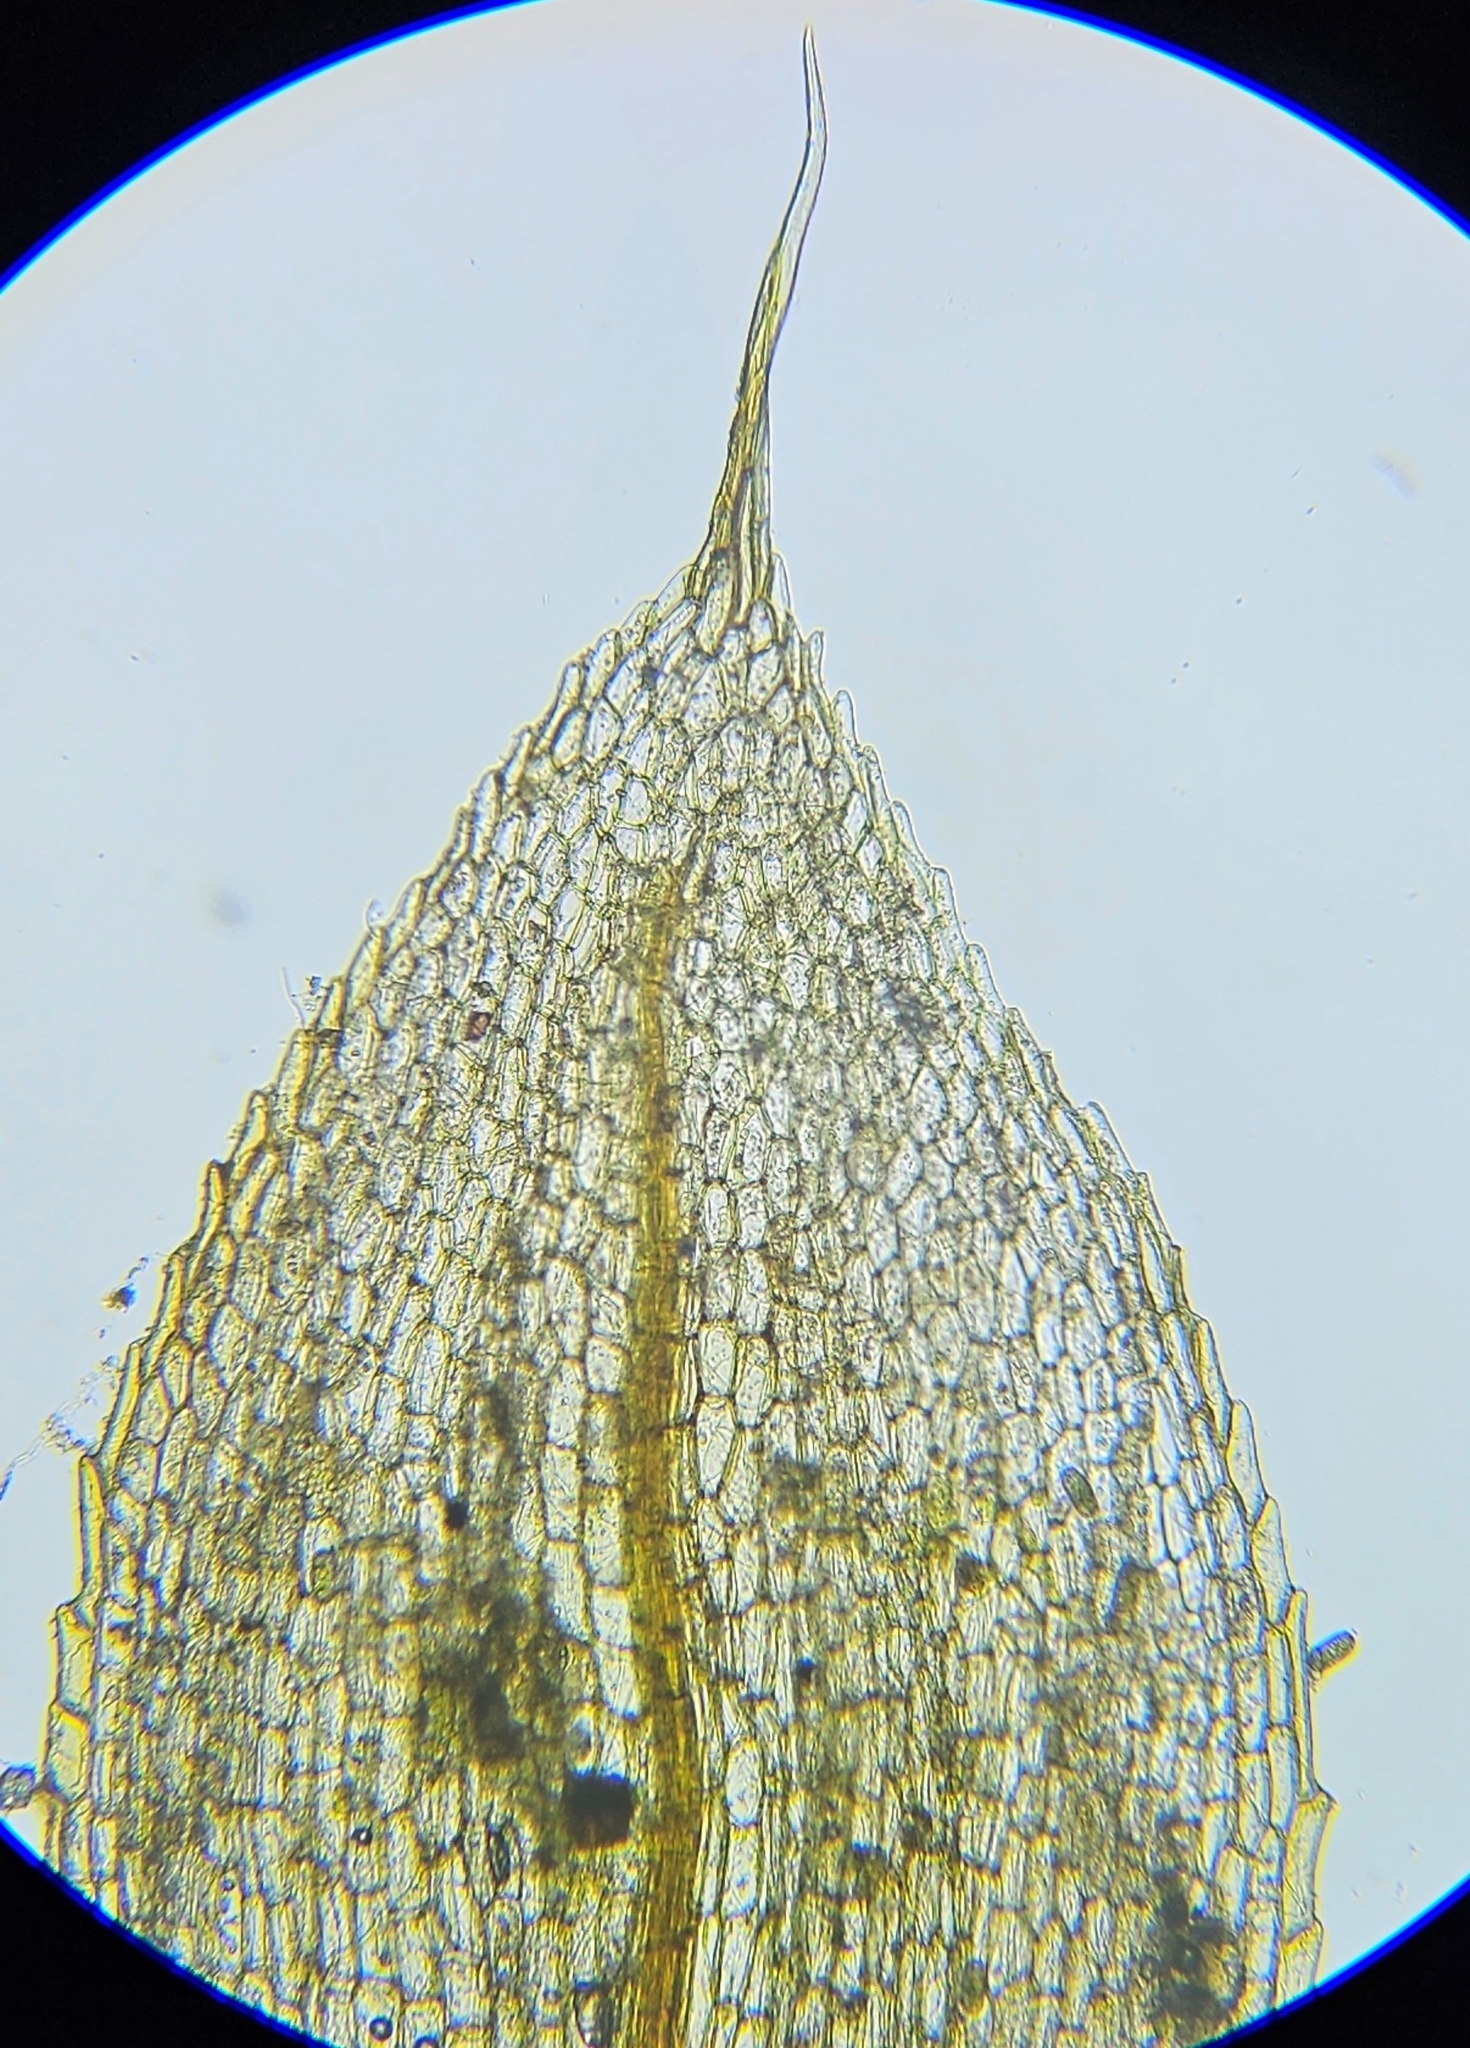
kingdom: Plantae
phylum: Bryophyta
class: Bryopsida
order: Funariales
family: Funariaceae
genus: Entosthodon
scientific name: Entosthodon muhlenbergii
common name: Muhlenberg's cord-moss
